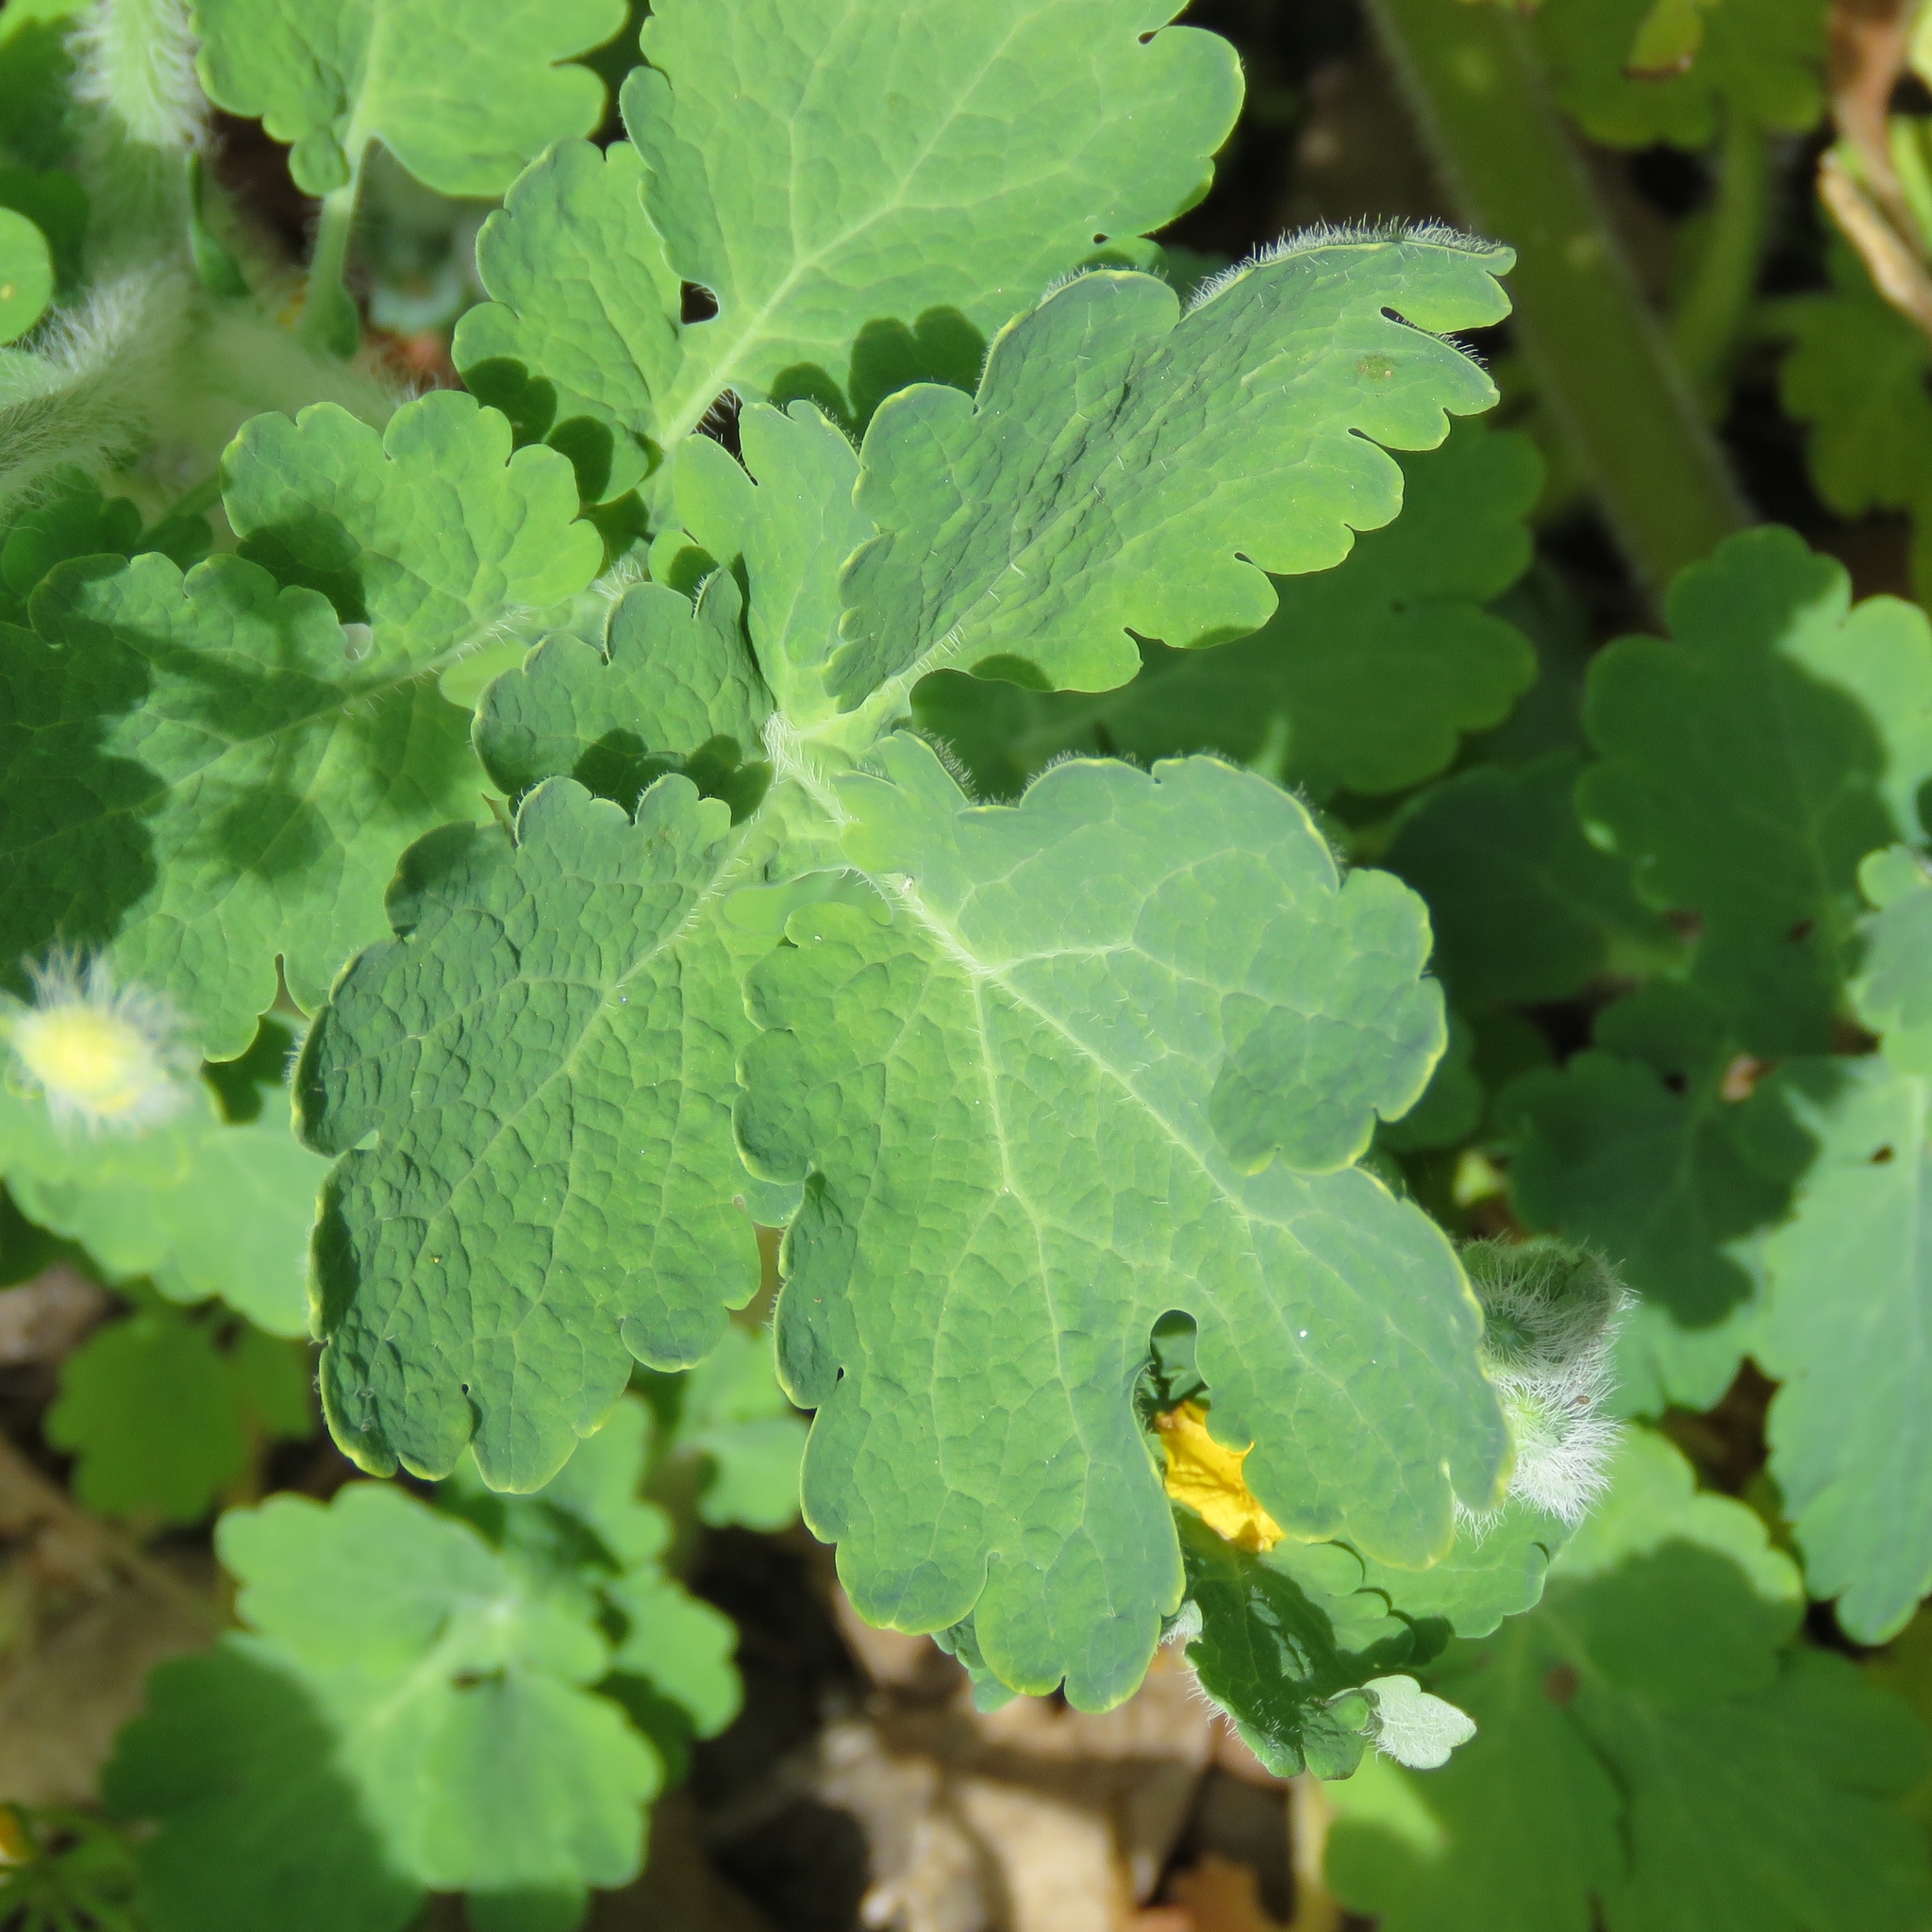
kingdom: Plantae
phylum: Tracheophyta
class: Magnoliopsida
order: Ranunculales
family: Papaveraceae
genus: Chelidonium
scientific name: Chelidonium majus
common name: Greater celandine
